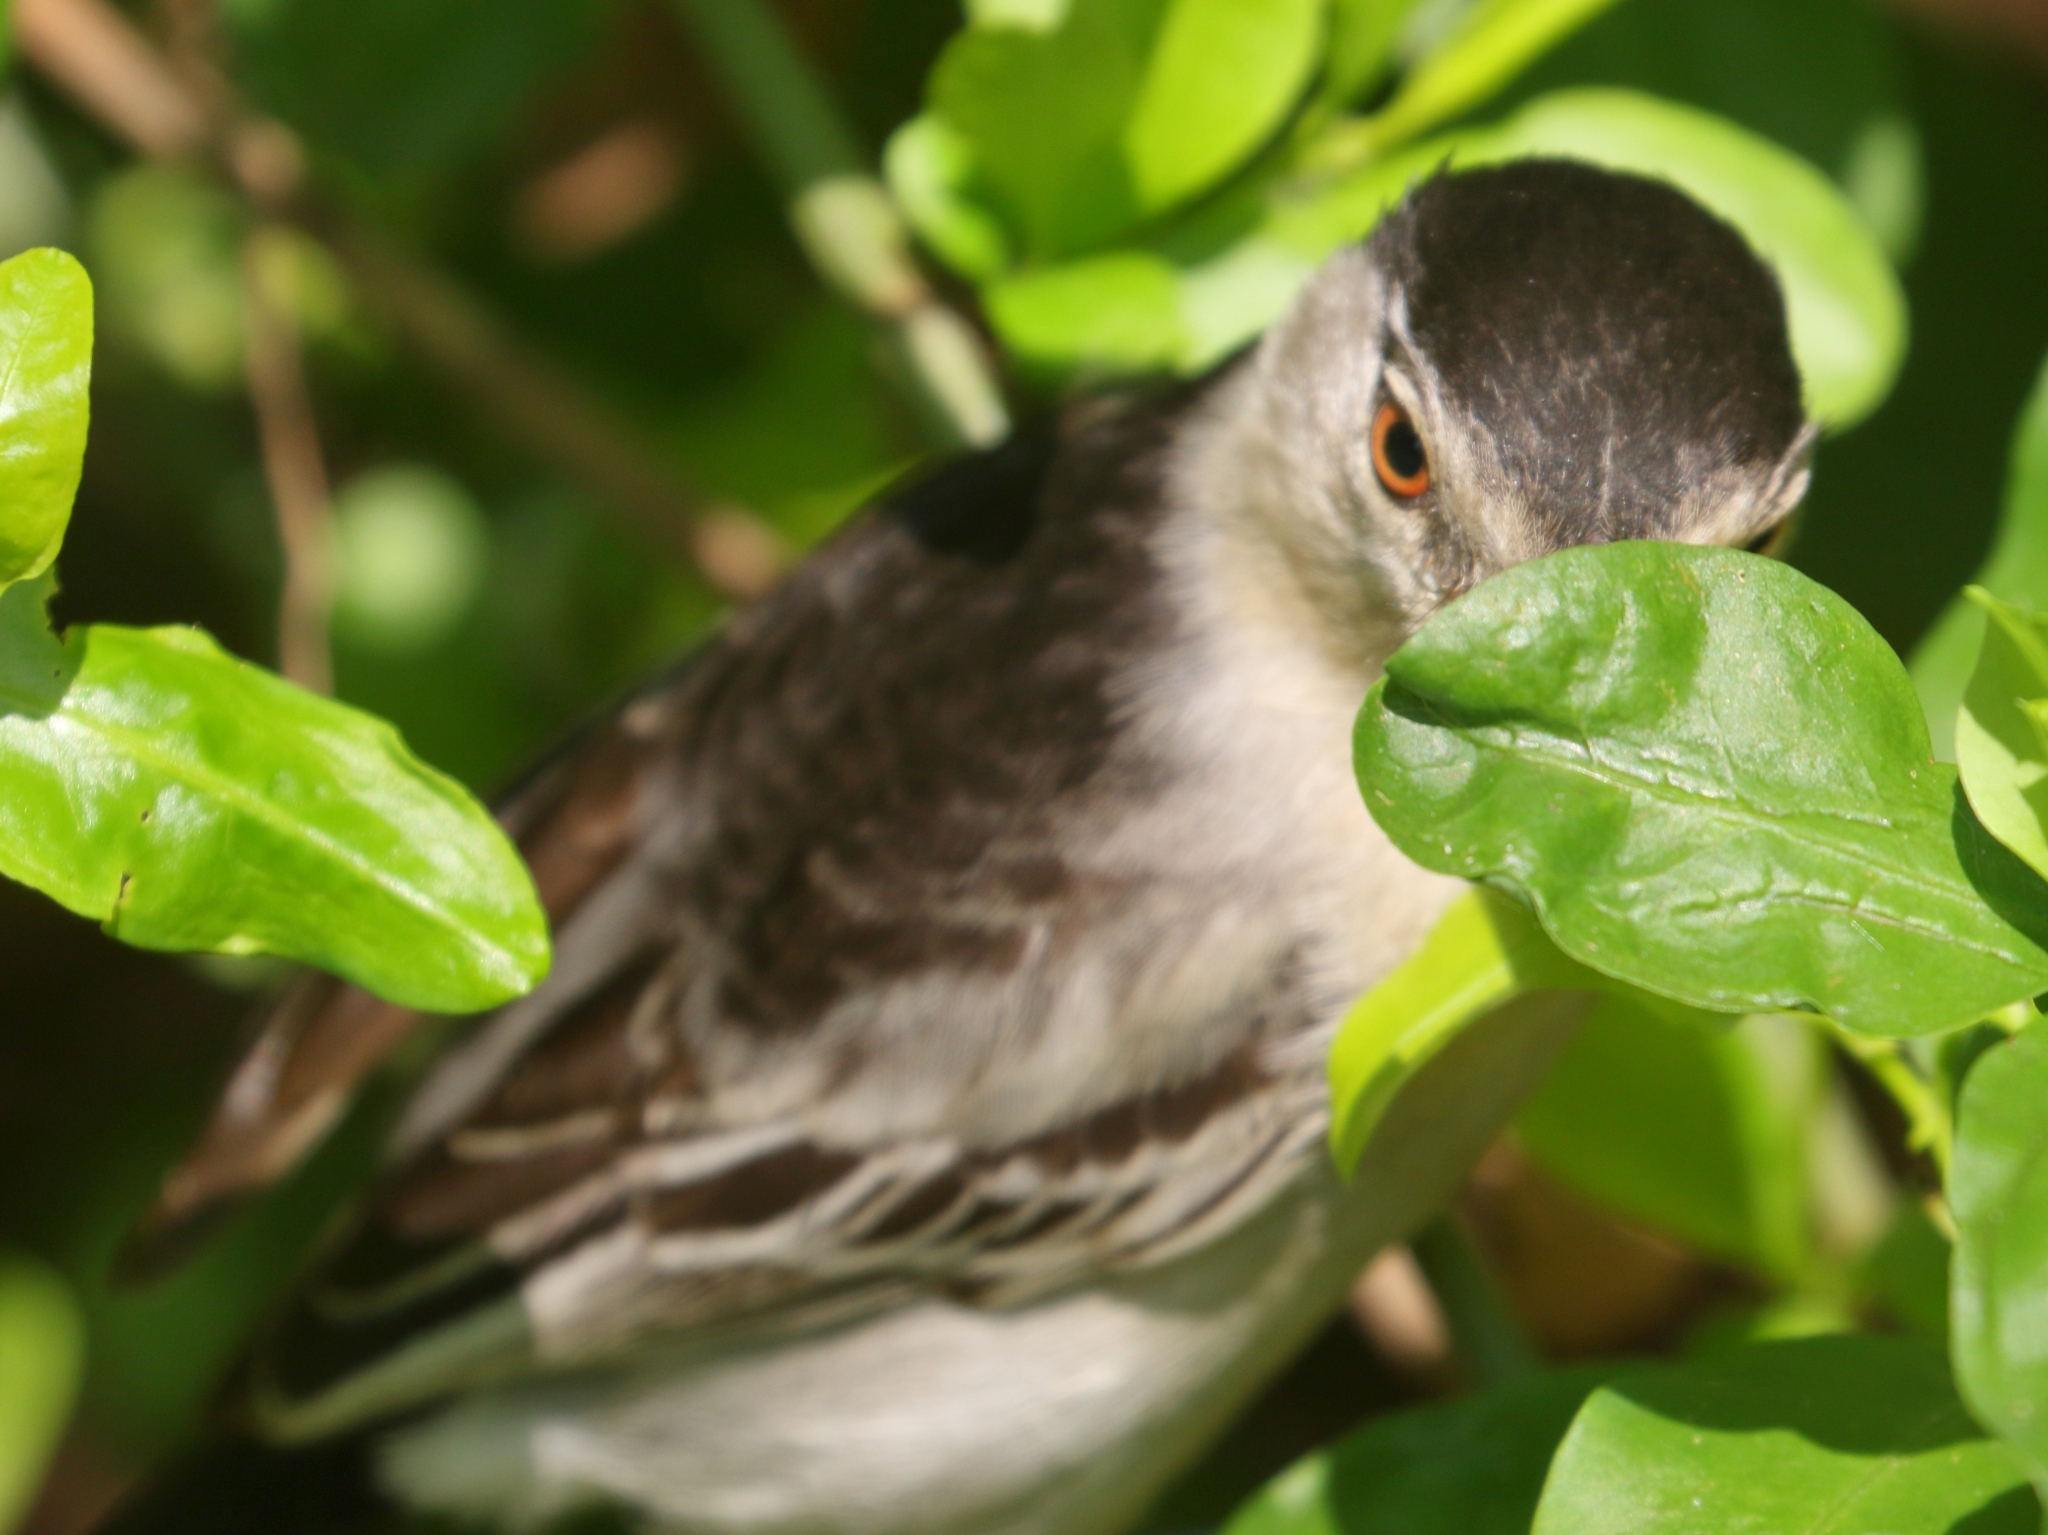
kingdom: Animalia
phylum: Chordata
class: Aves
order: Passeriformes
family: Malaconotidae
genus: Dryoscopus
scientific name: Dryoscopus cubla
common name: Black-backed puffback
